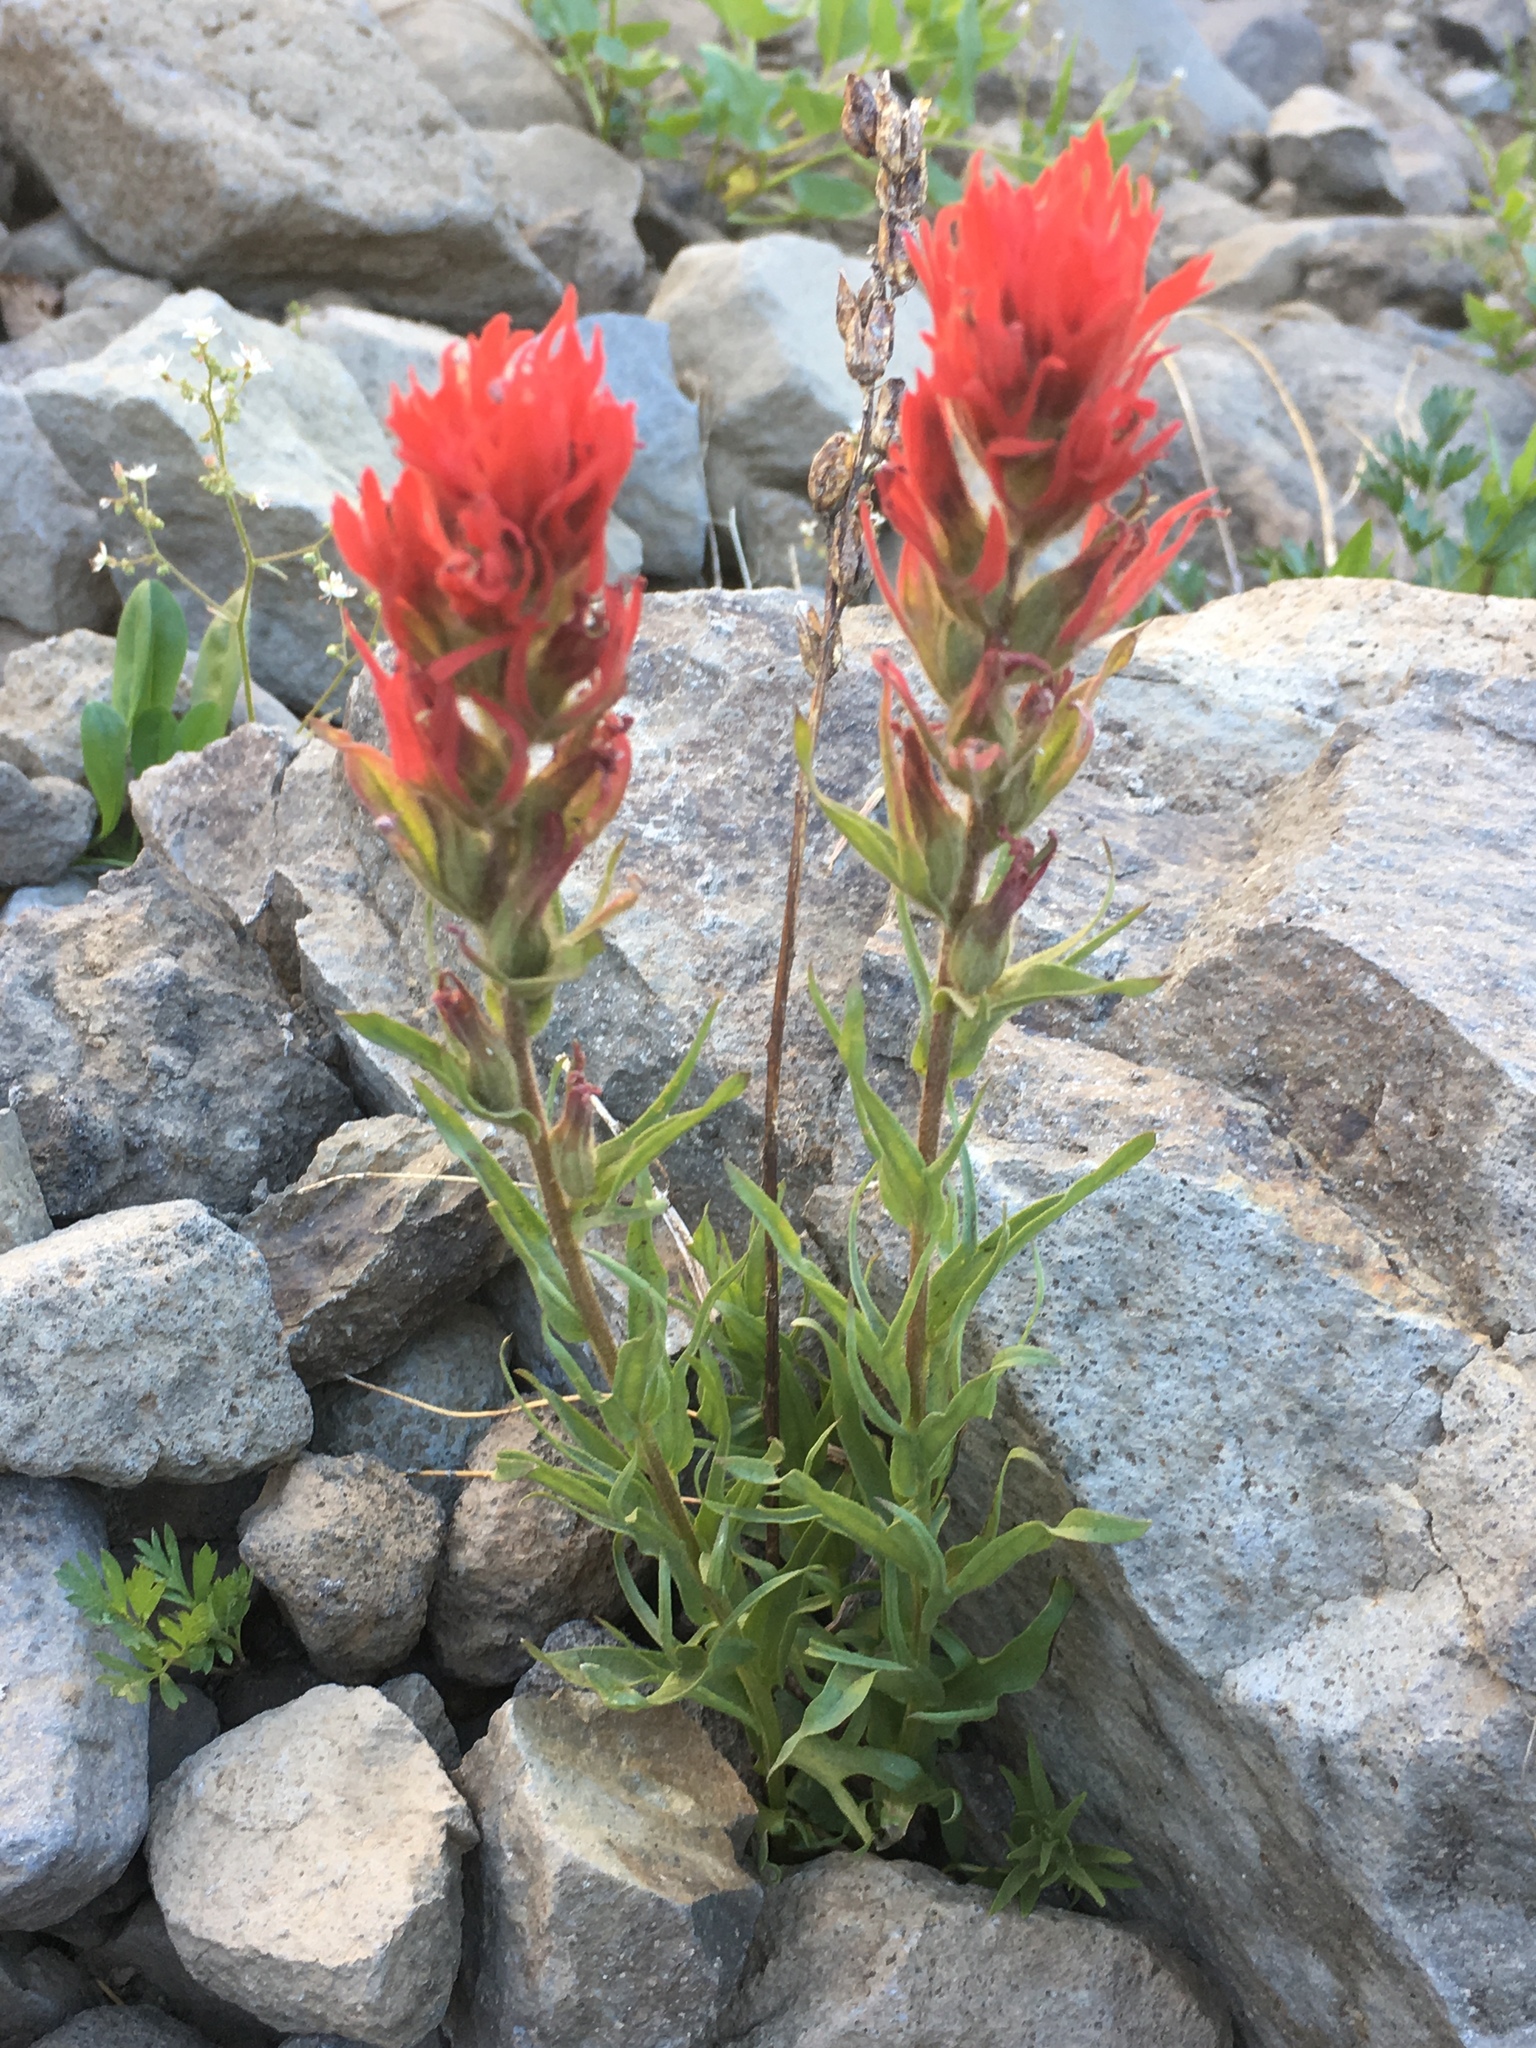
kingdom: Plantae
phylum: Tracheophyta
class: Magnoliopsida
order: Lamiales
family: Orobanchaceae
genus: Castilleja
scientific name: Castilleja parviflora
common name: Mountain paintbrush
